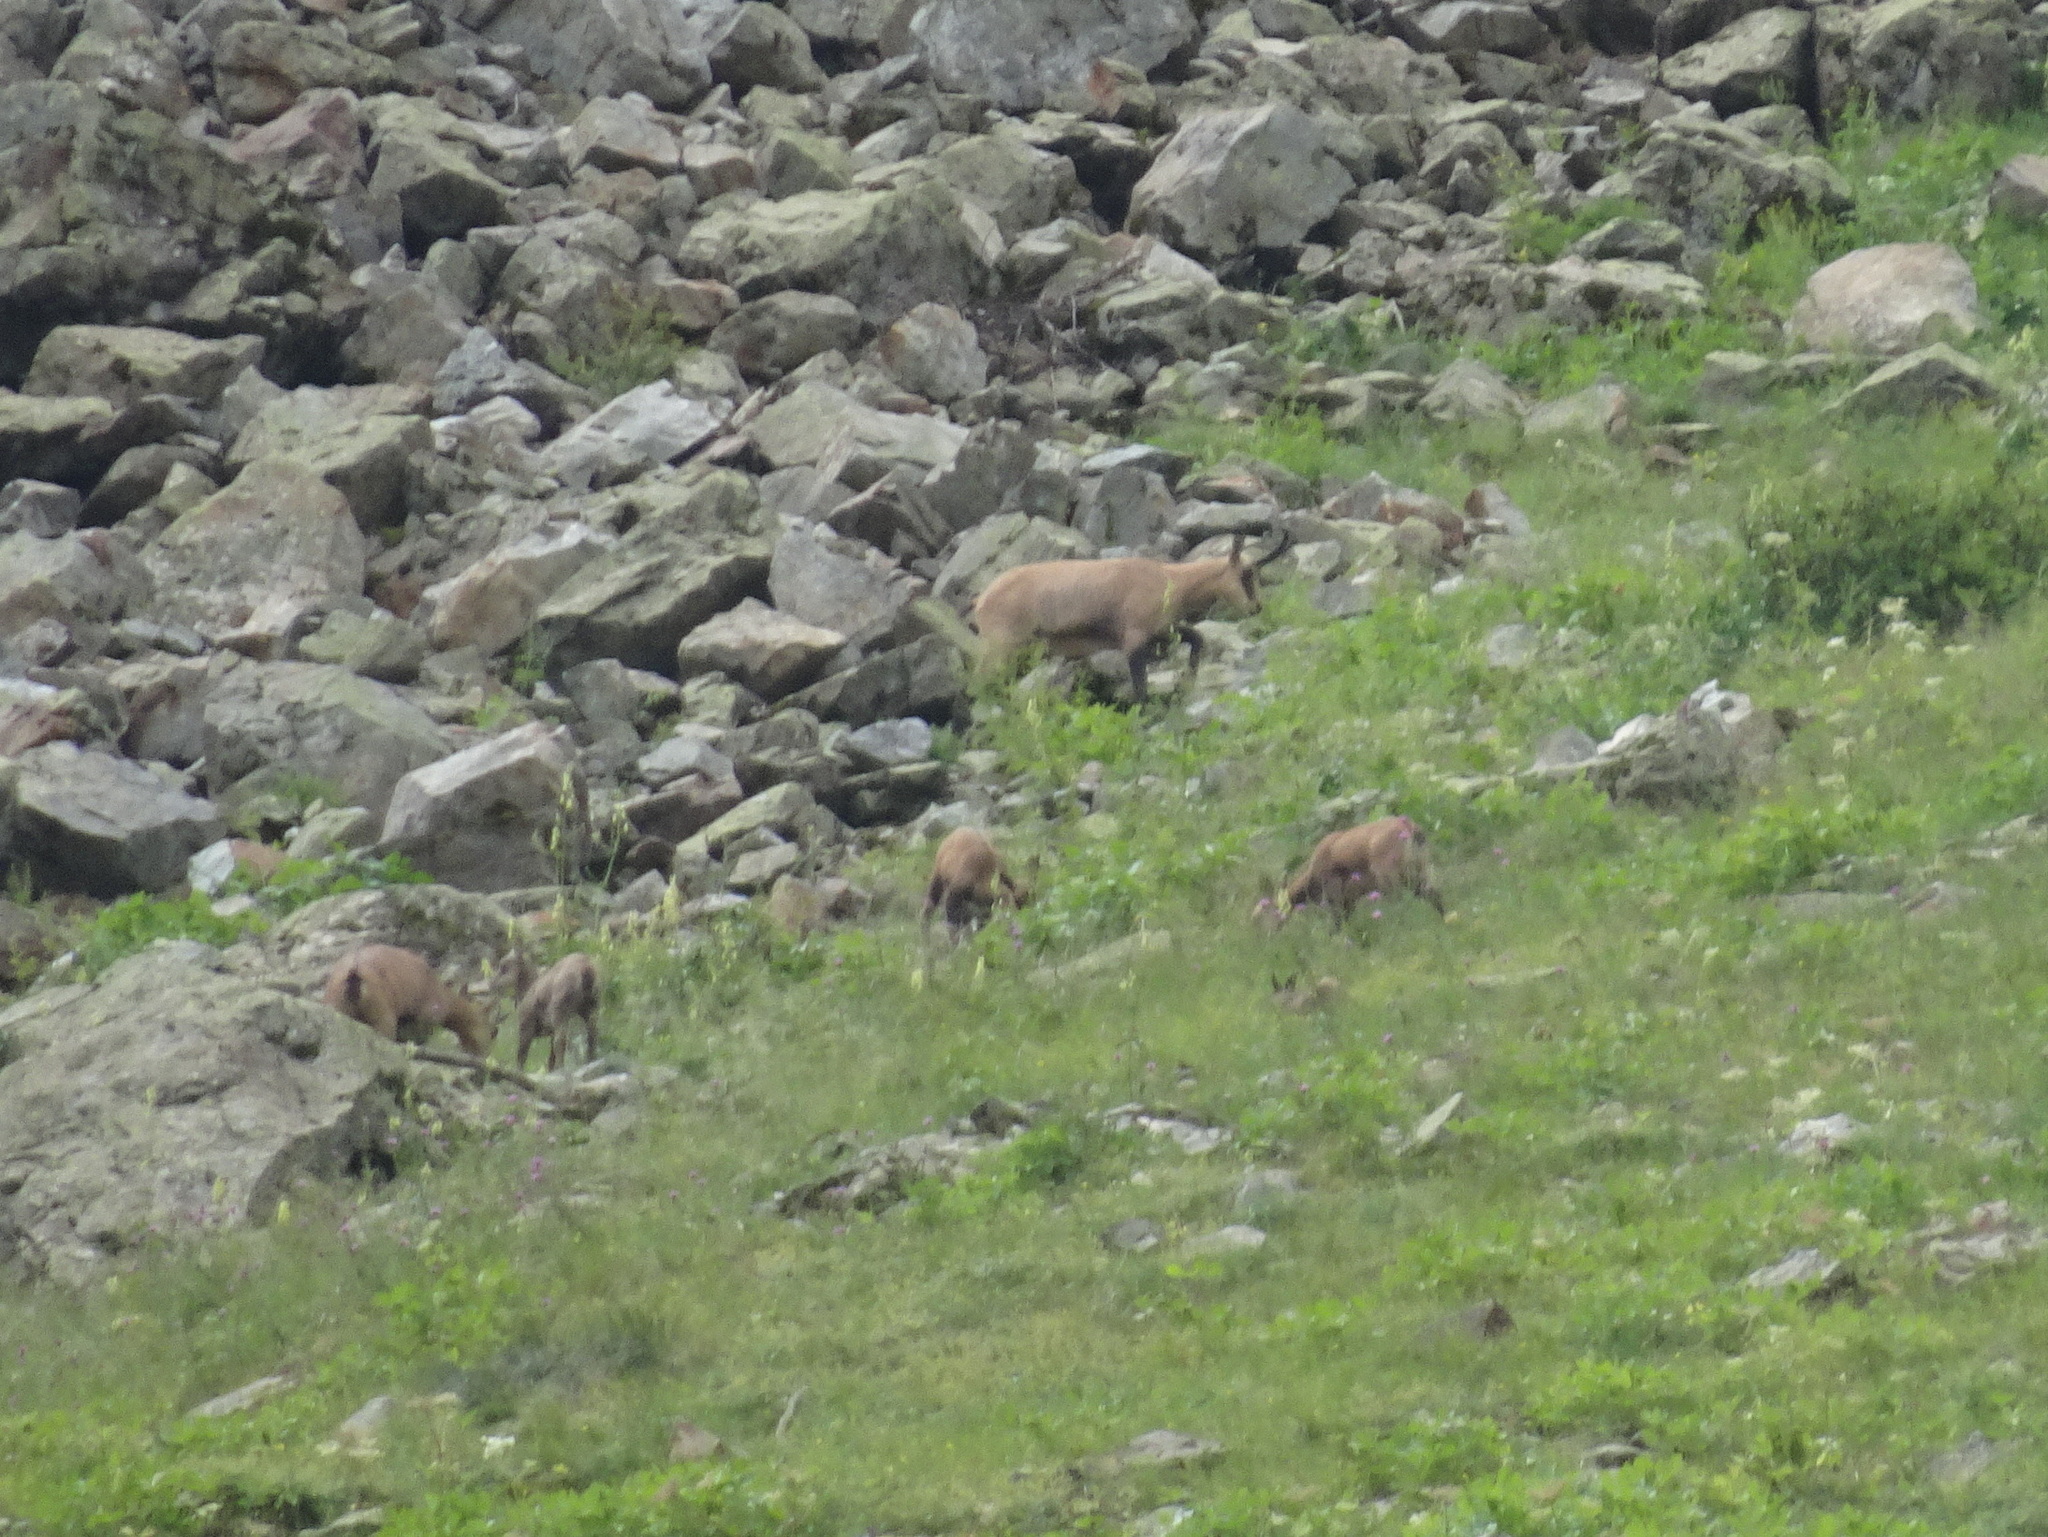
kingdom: Animalia
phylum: Chordata
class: Mammalia
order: Artiodactyla
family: Bovidae
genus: Rupicapra
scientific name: Rupicapra rupicapra
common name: Chamois
